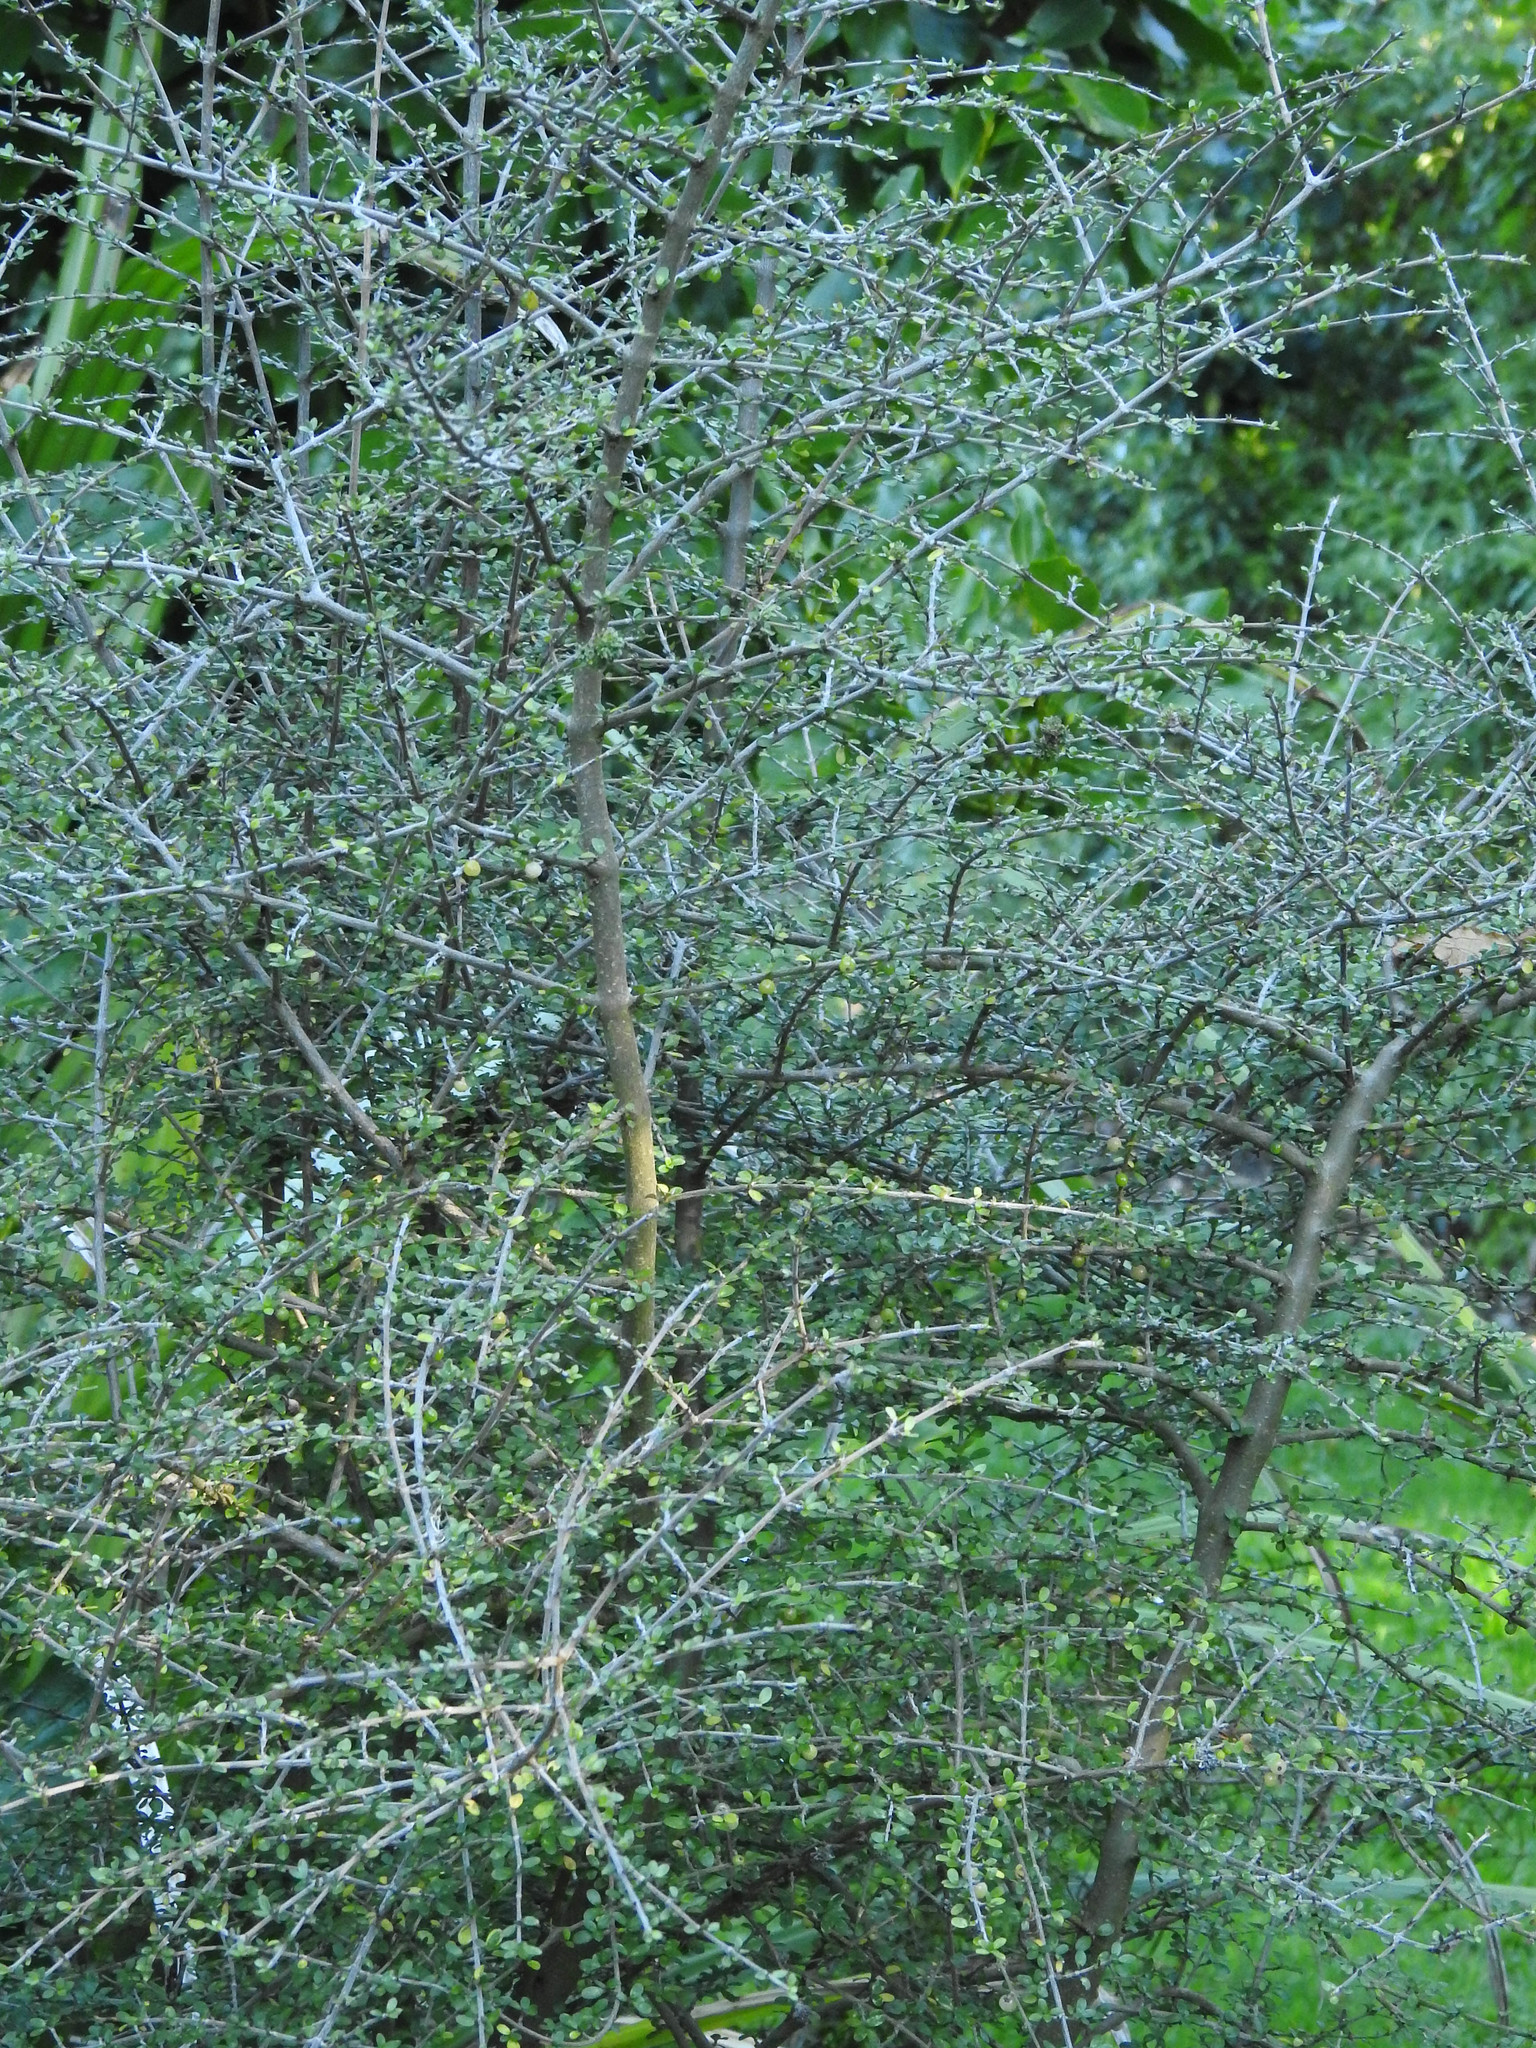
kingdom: Plantae
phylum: Tracheophyta
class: Magnoliopsida
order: Gentianales
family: Rubiaceae
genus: Coprosma
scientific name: Coprosma dumosa
